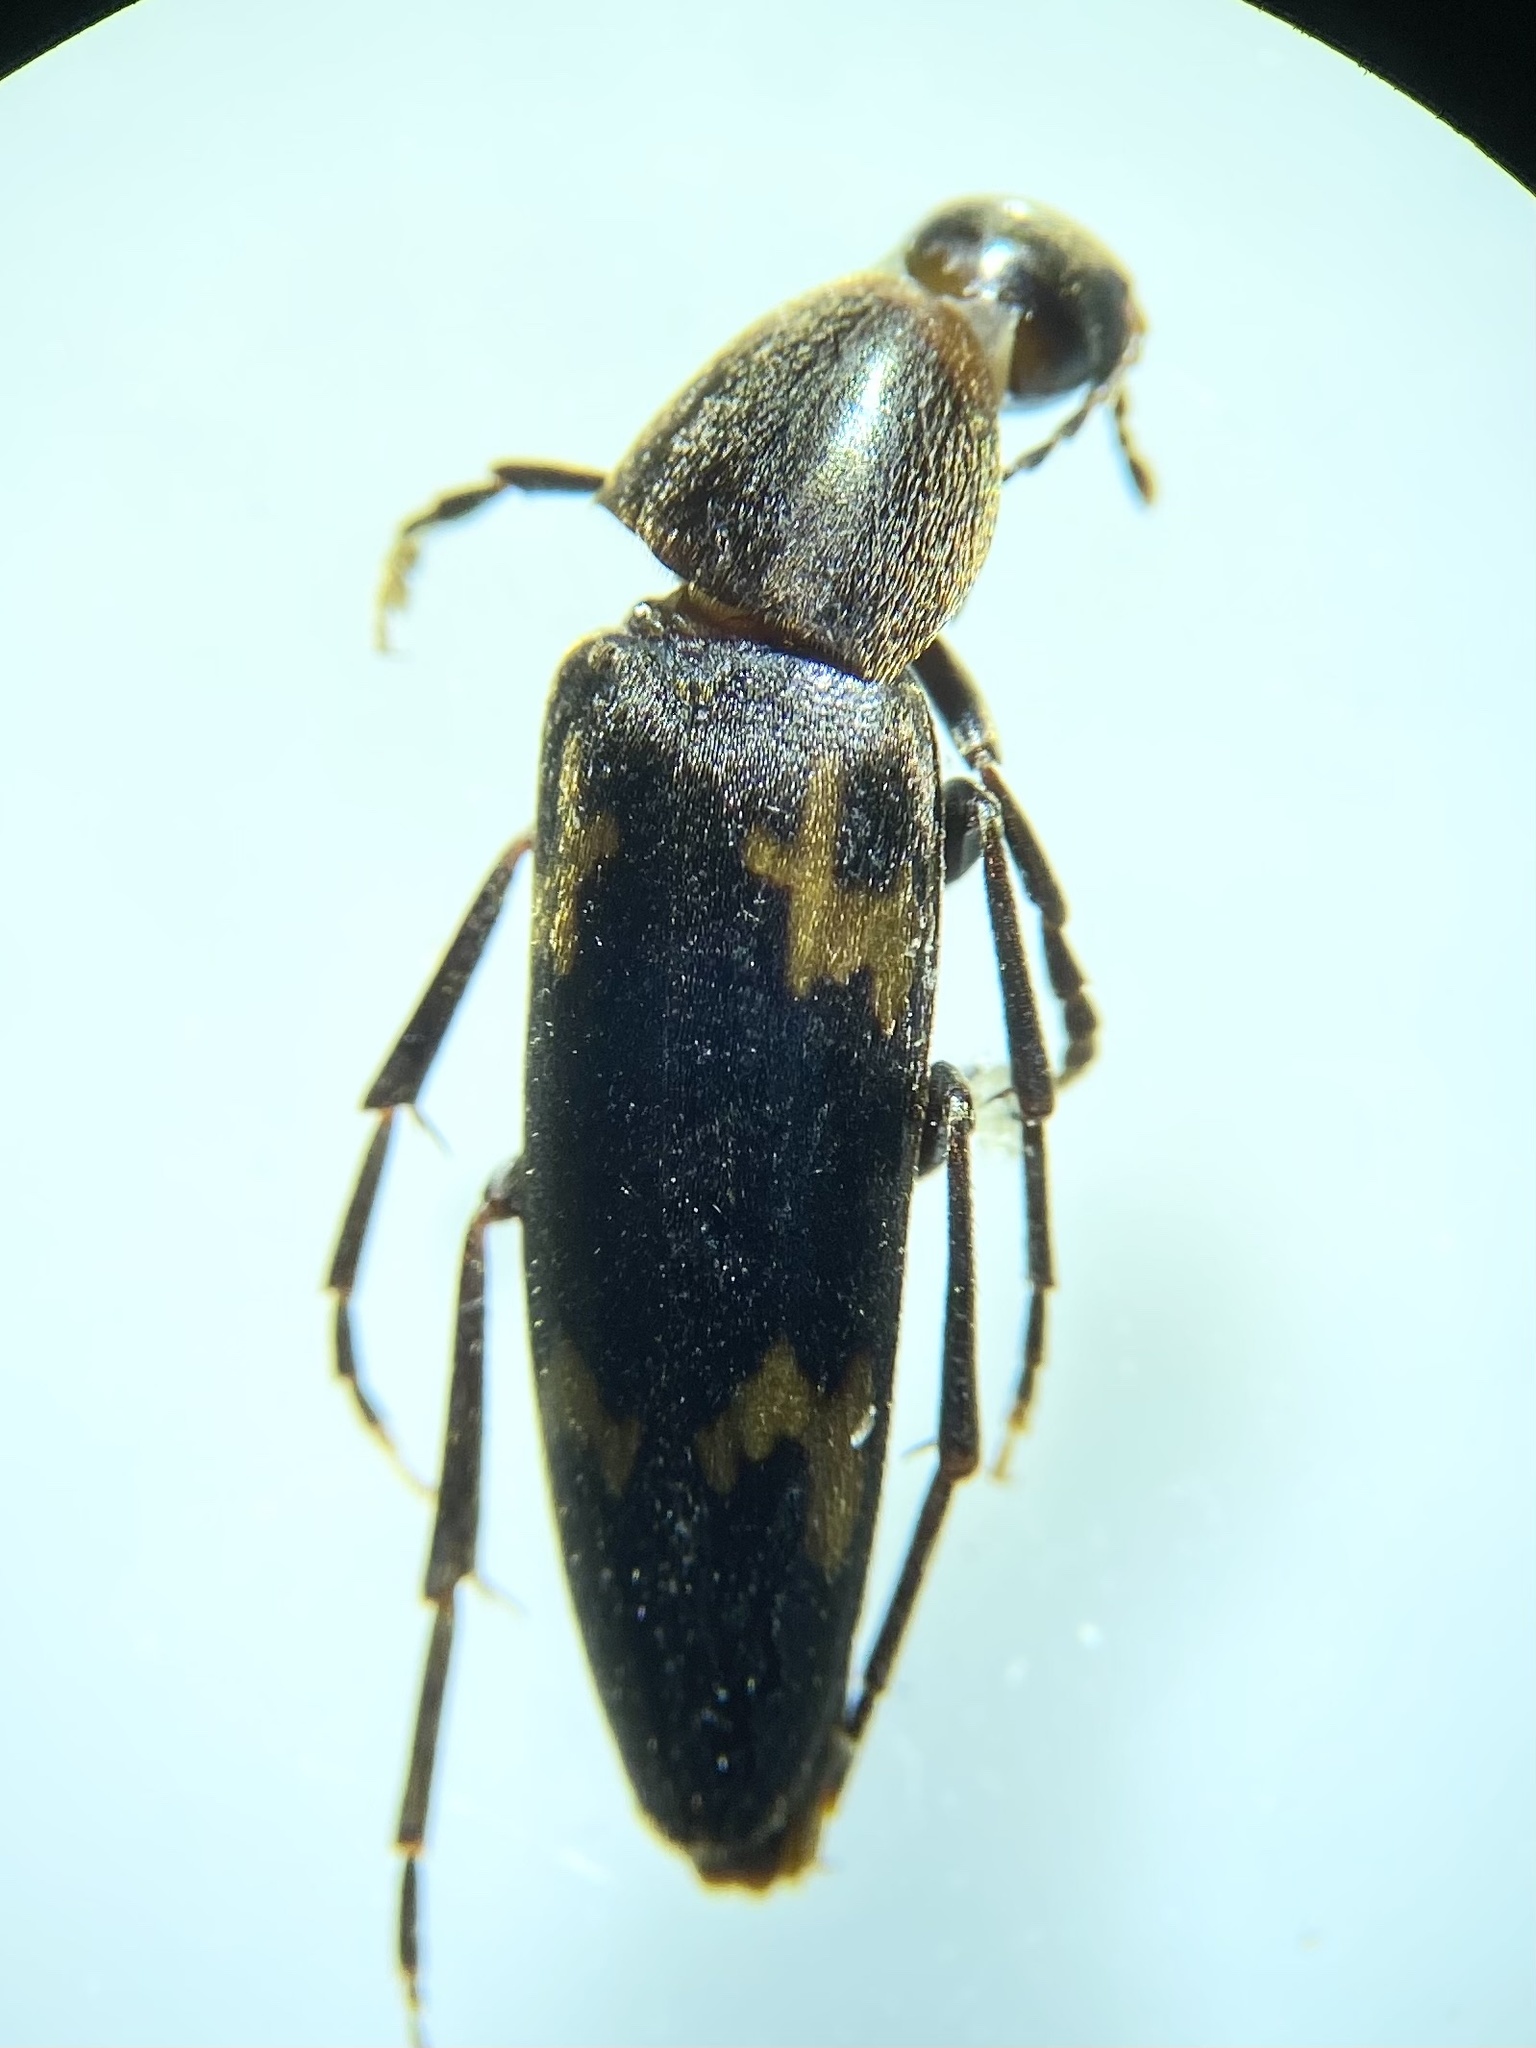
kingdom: Animalia
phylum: Arthropoda
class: Insecta
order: Coleoptera
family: Melandryidae
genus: Dircaea
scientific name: Dircaea liturata
